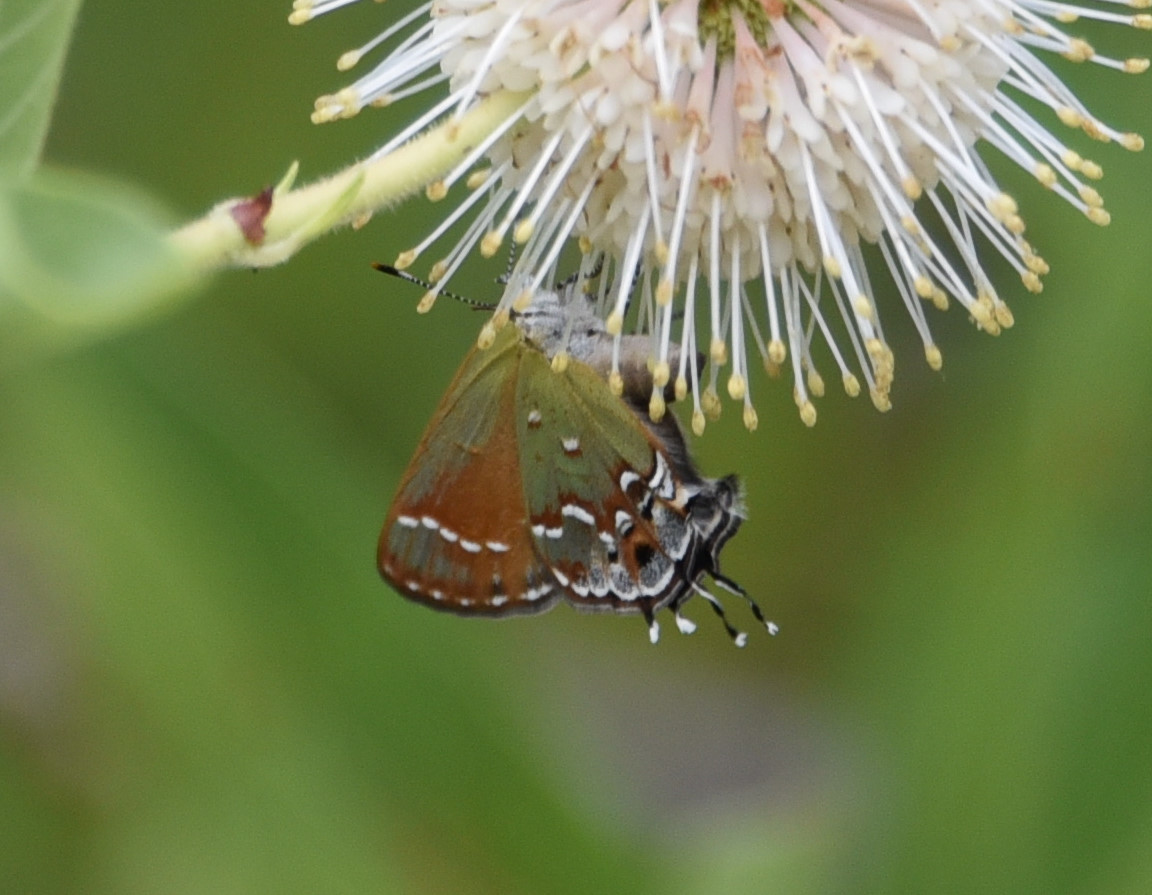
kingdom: Animalia
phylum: Arthropoda
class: Insecta
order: Lepidoptera
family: Lycaenidae
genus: Mitoura
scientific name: Mitoura gryneus
